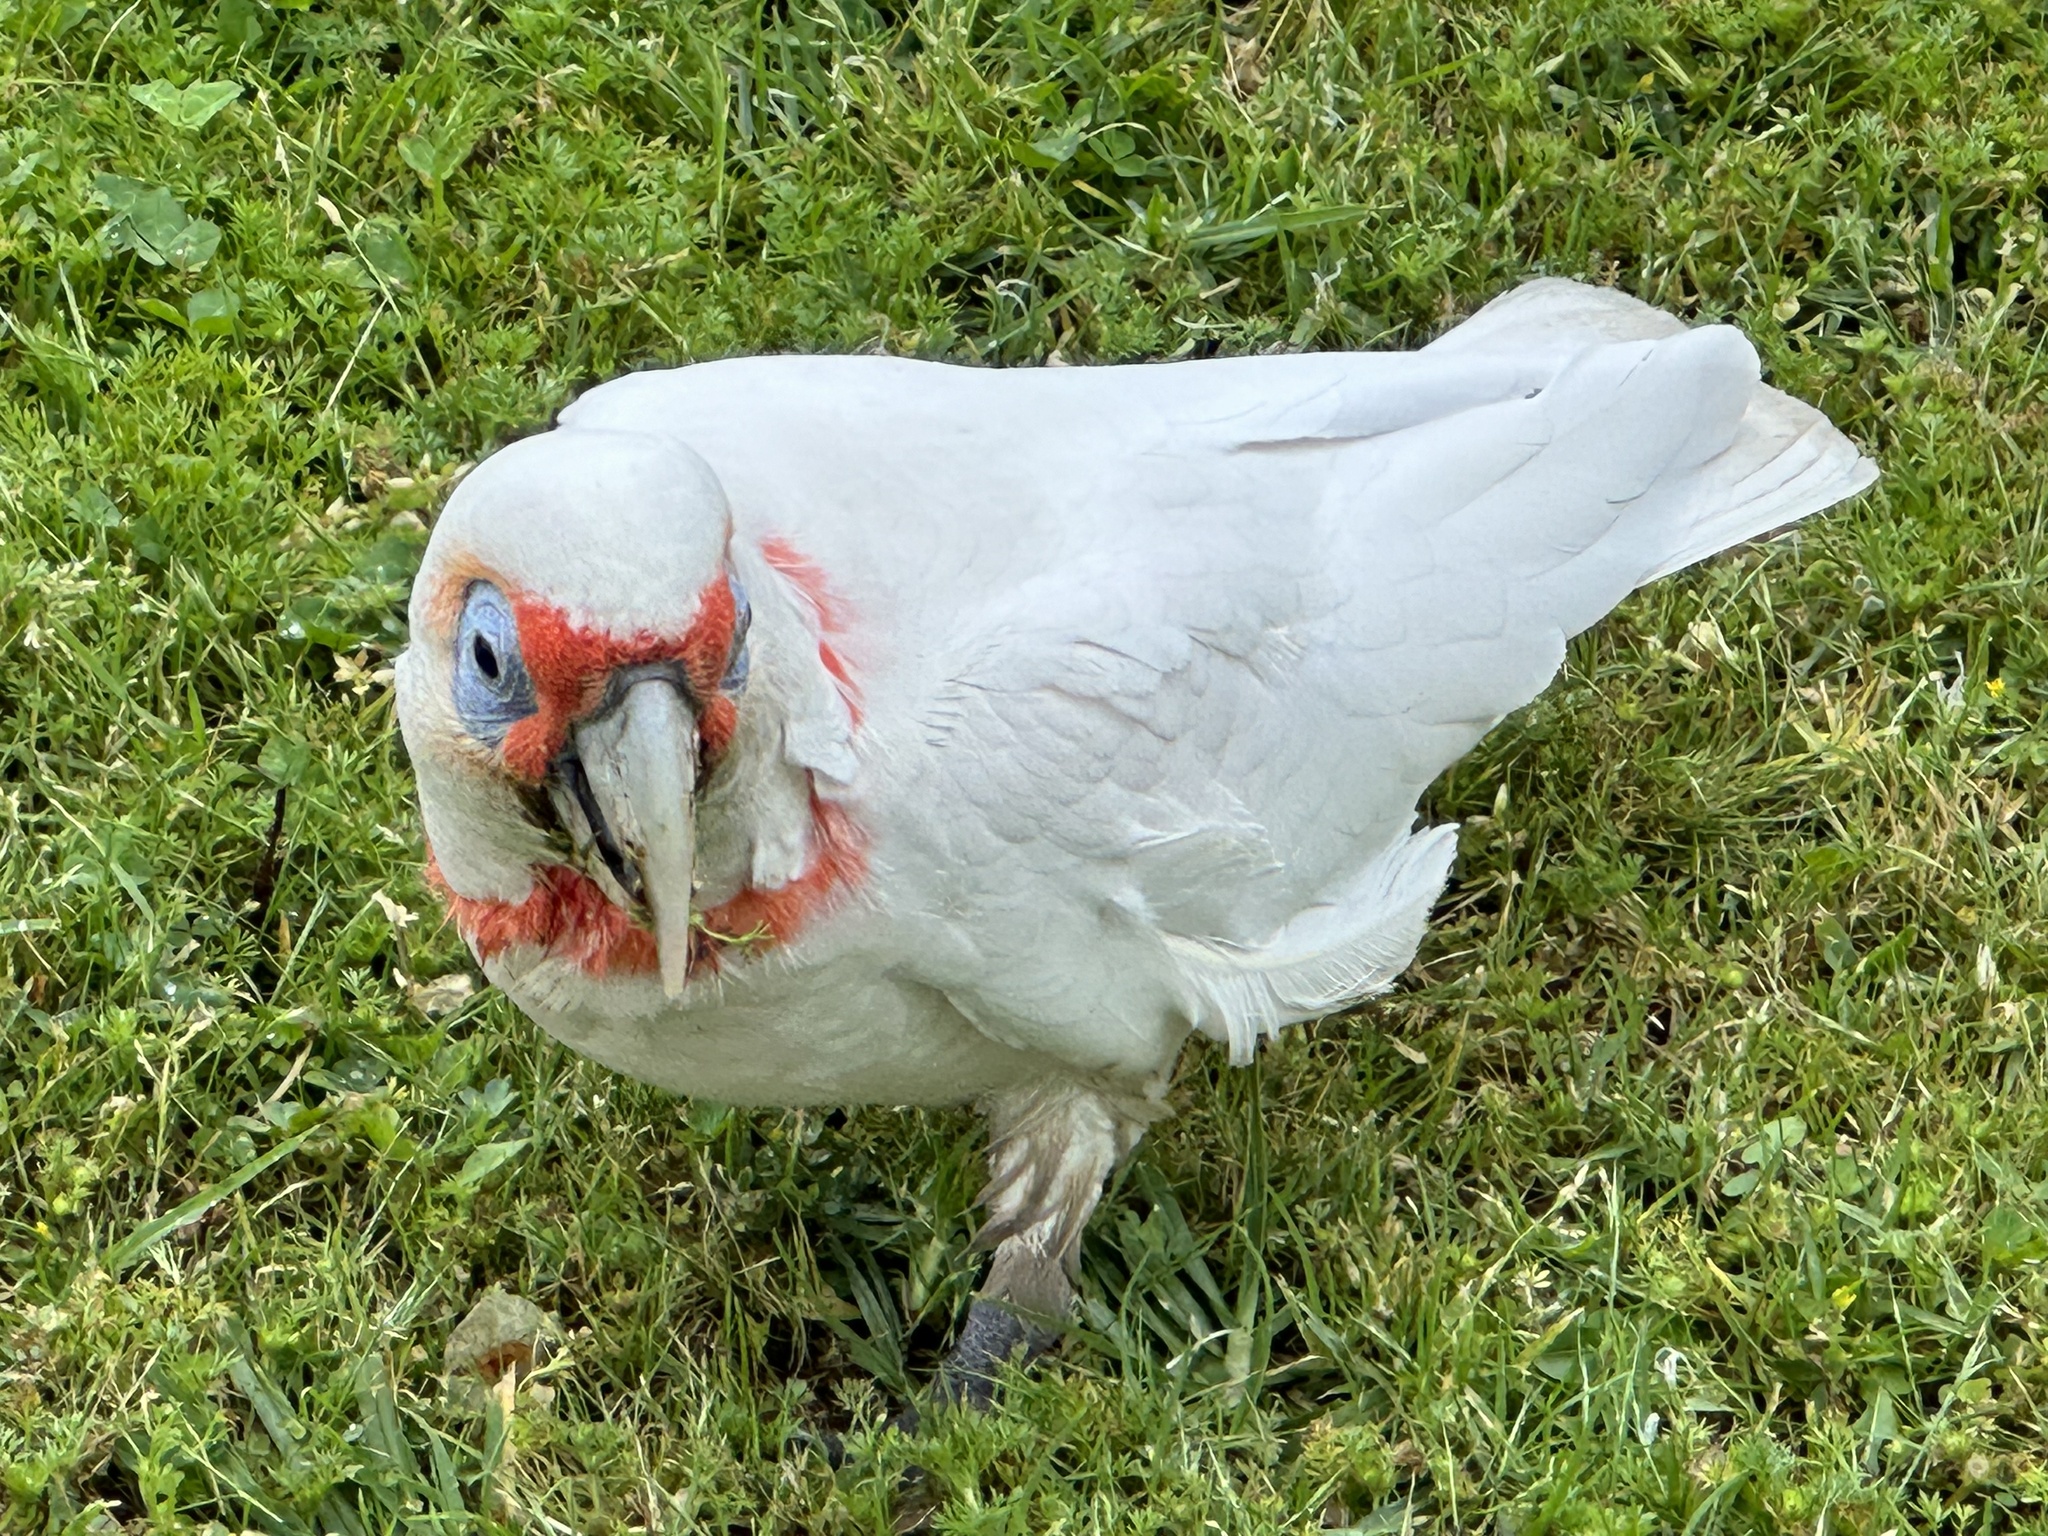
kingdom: Animalia
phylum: Chordata
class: Aves
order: Psittaciformes
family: Psittacidae
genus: Cacatua
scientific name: Cacatua tenuirostris
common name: Long-billed corella
